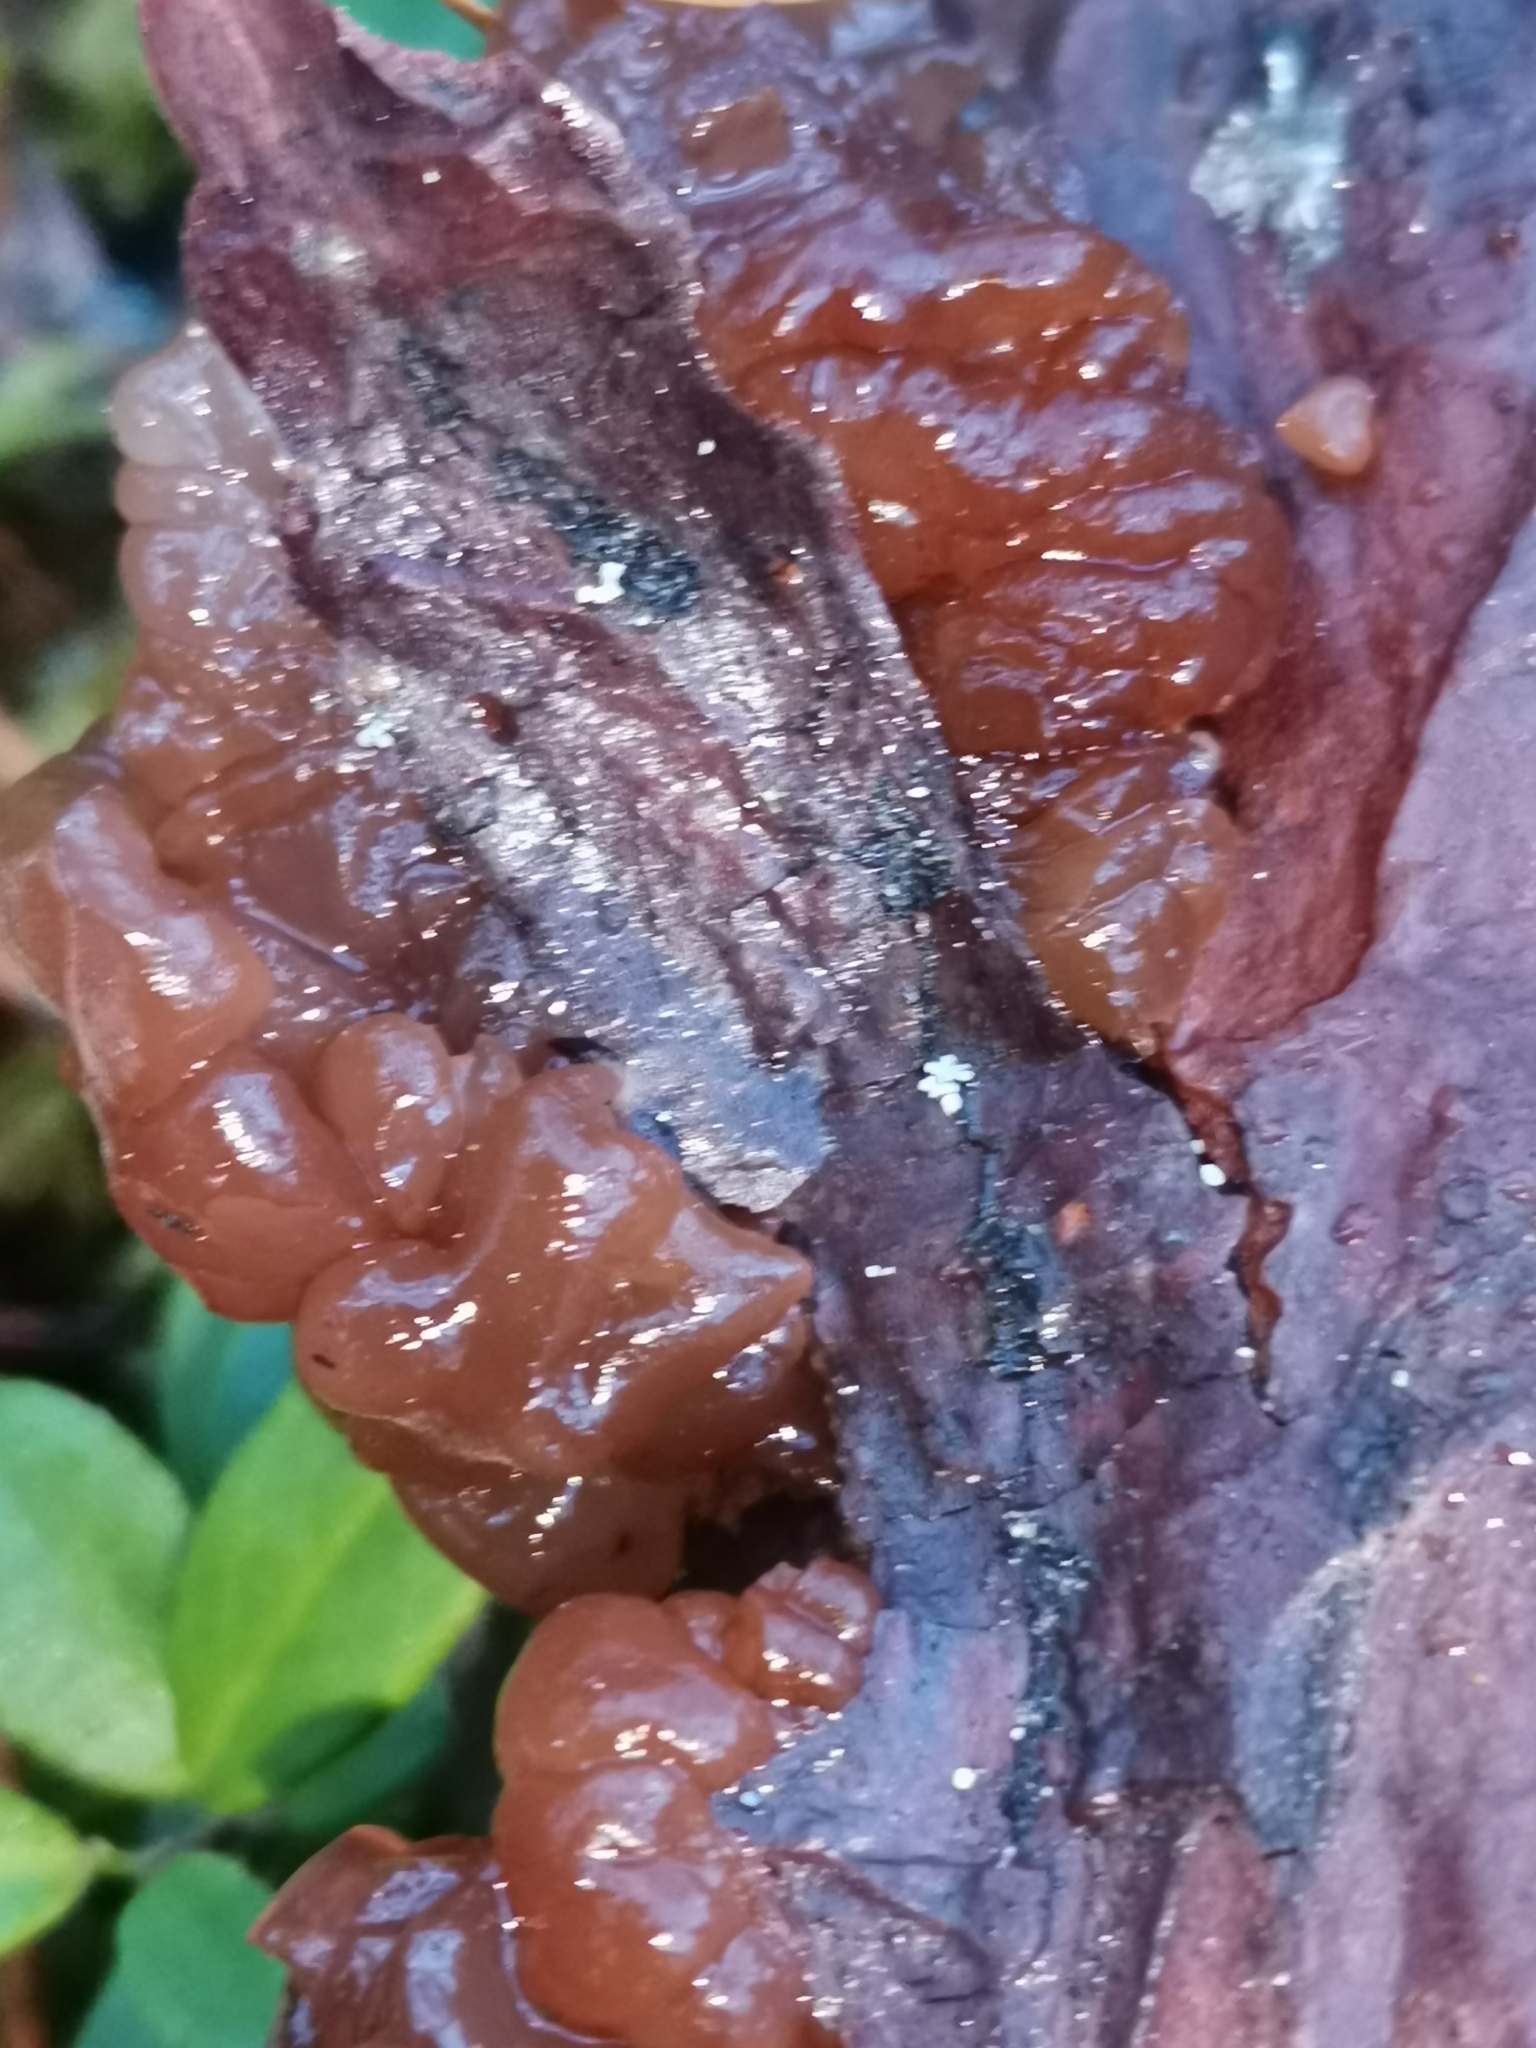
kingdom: Fungi
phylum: Basidiomycota
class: Agaricomycetes
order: Auriculariales
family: Auriculariaceae
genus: Exidia
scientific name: Exidia saccharina
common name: Pine jelly
